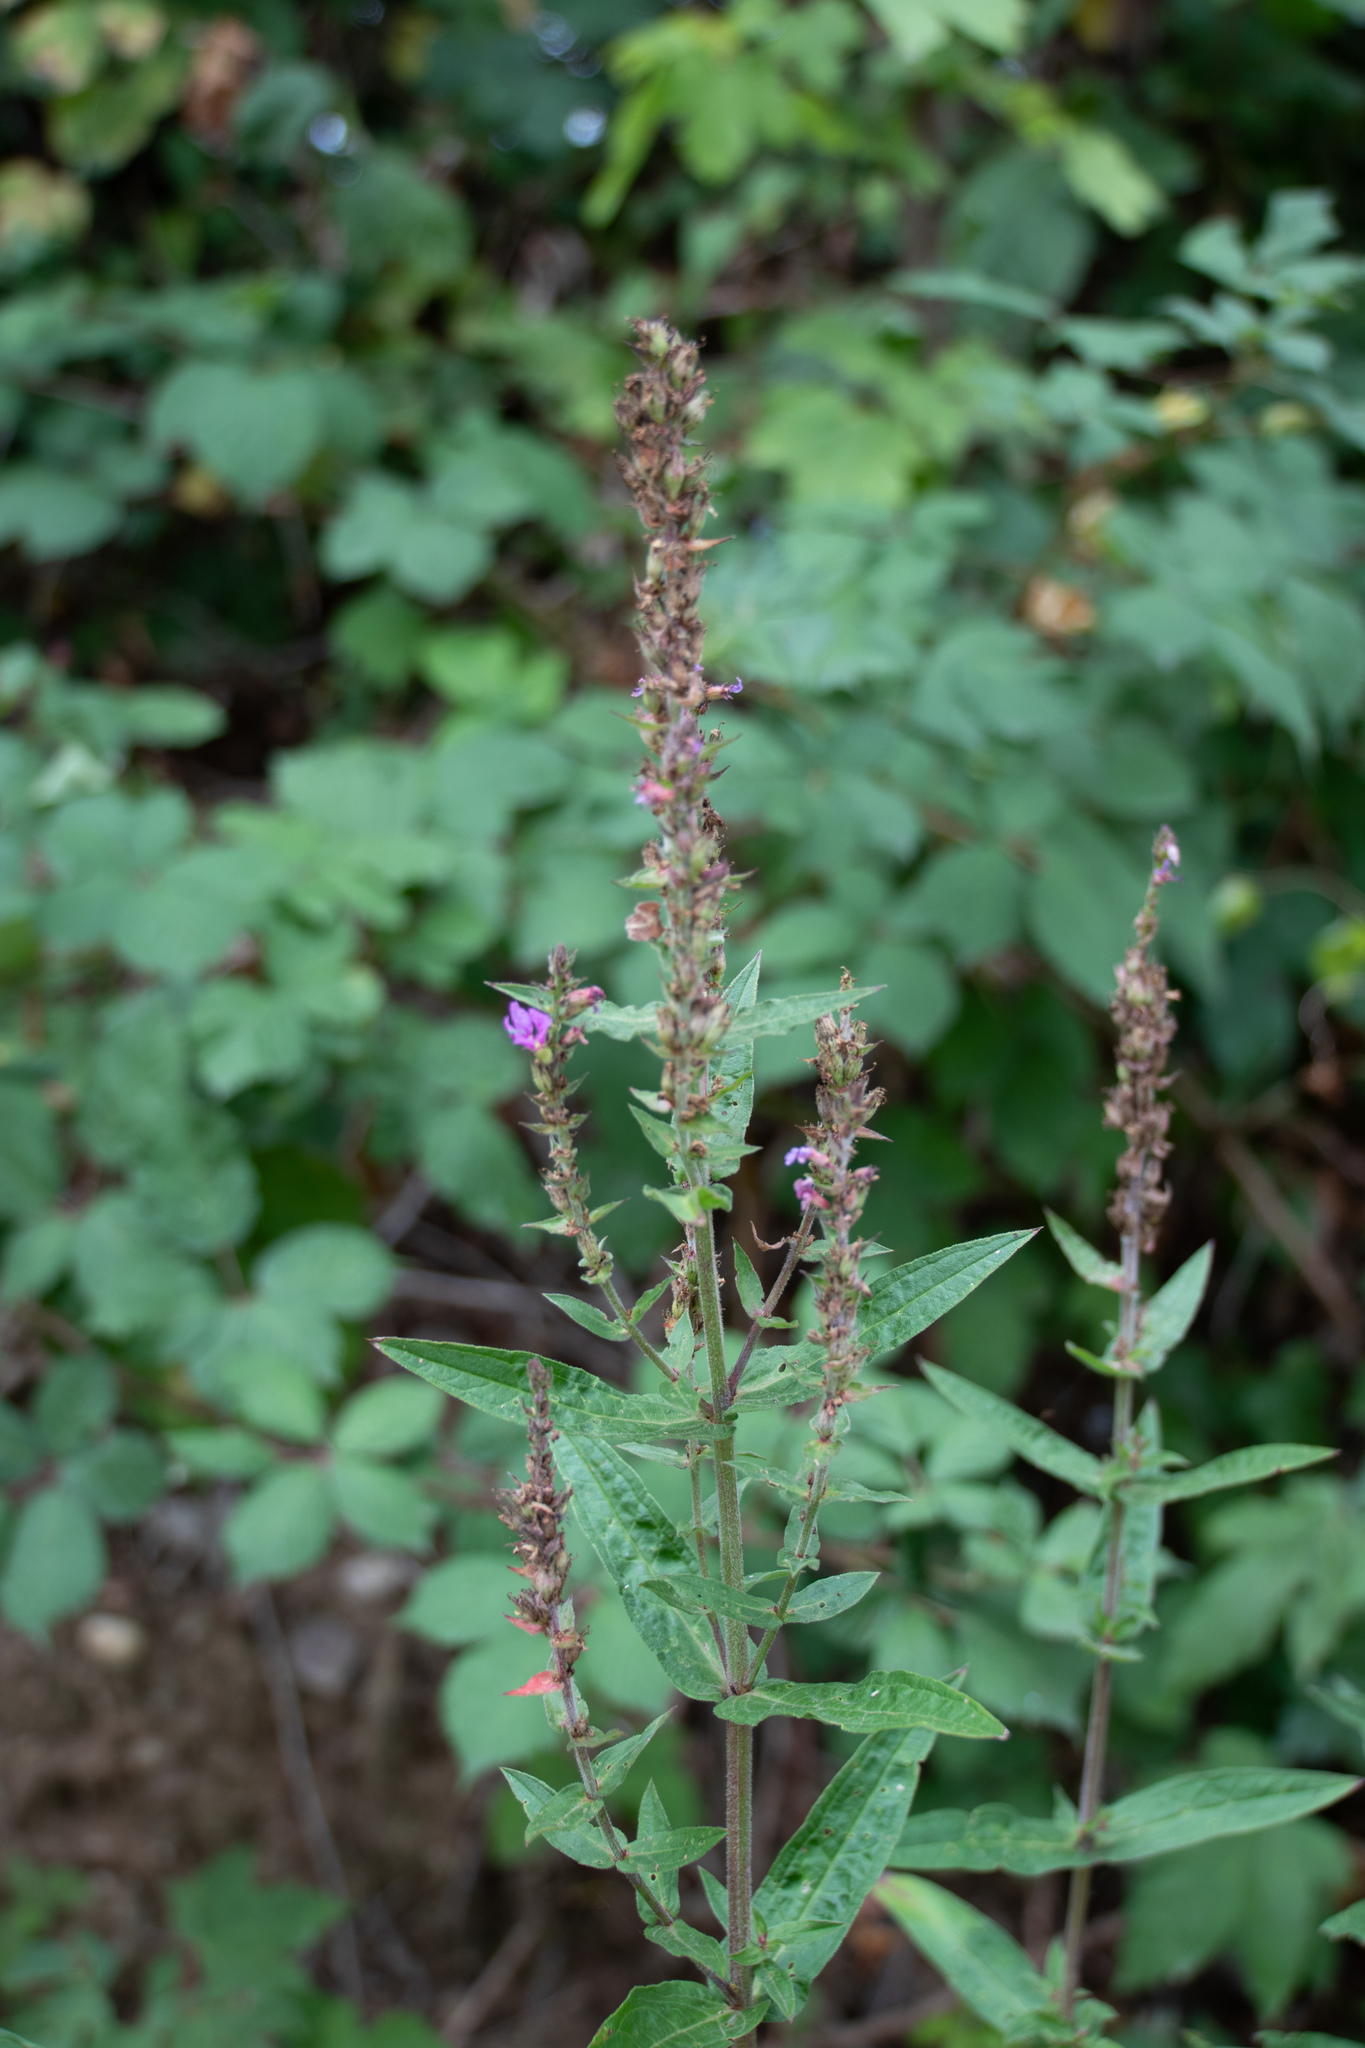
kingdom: Plantae
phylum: Tracheophyta
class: Magnoliopsida
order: Myrtales
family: Lythraceae
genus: Lythrum
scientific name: Lythrum salicaria
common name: Purple loosestrife
